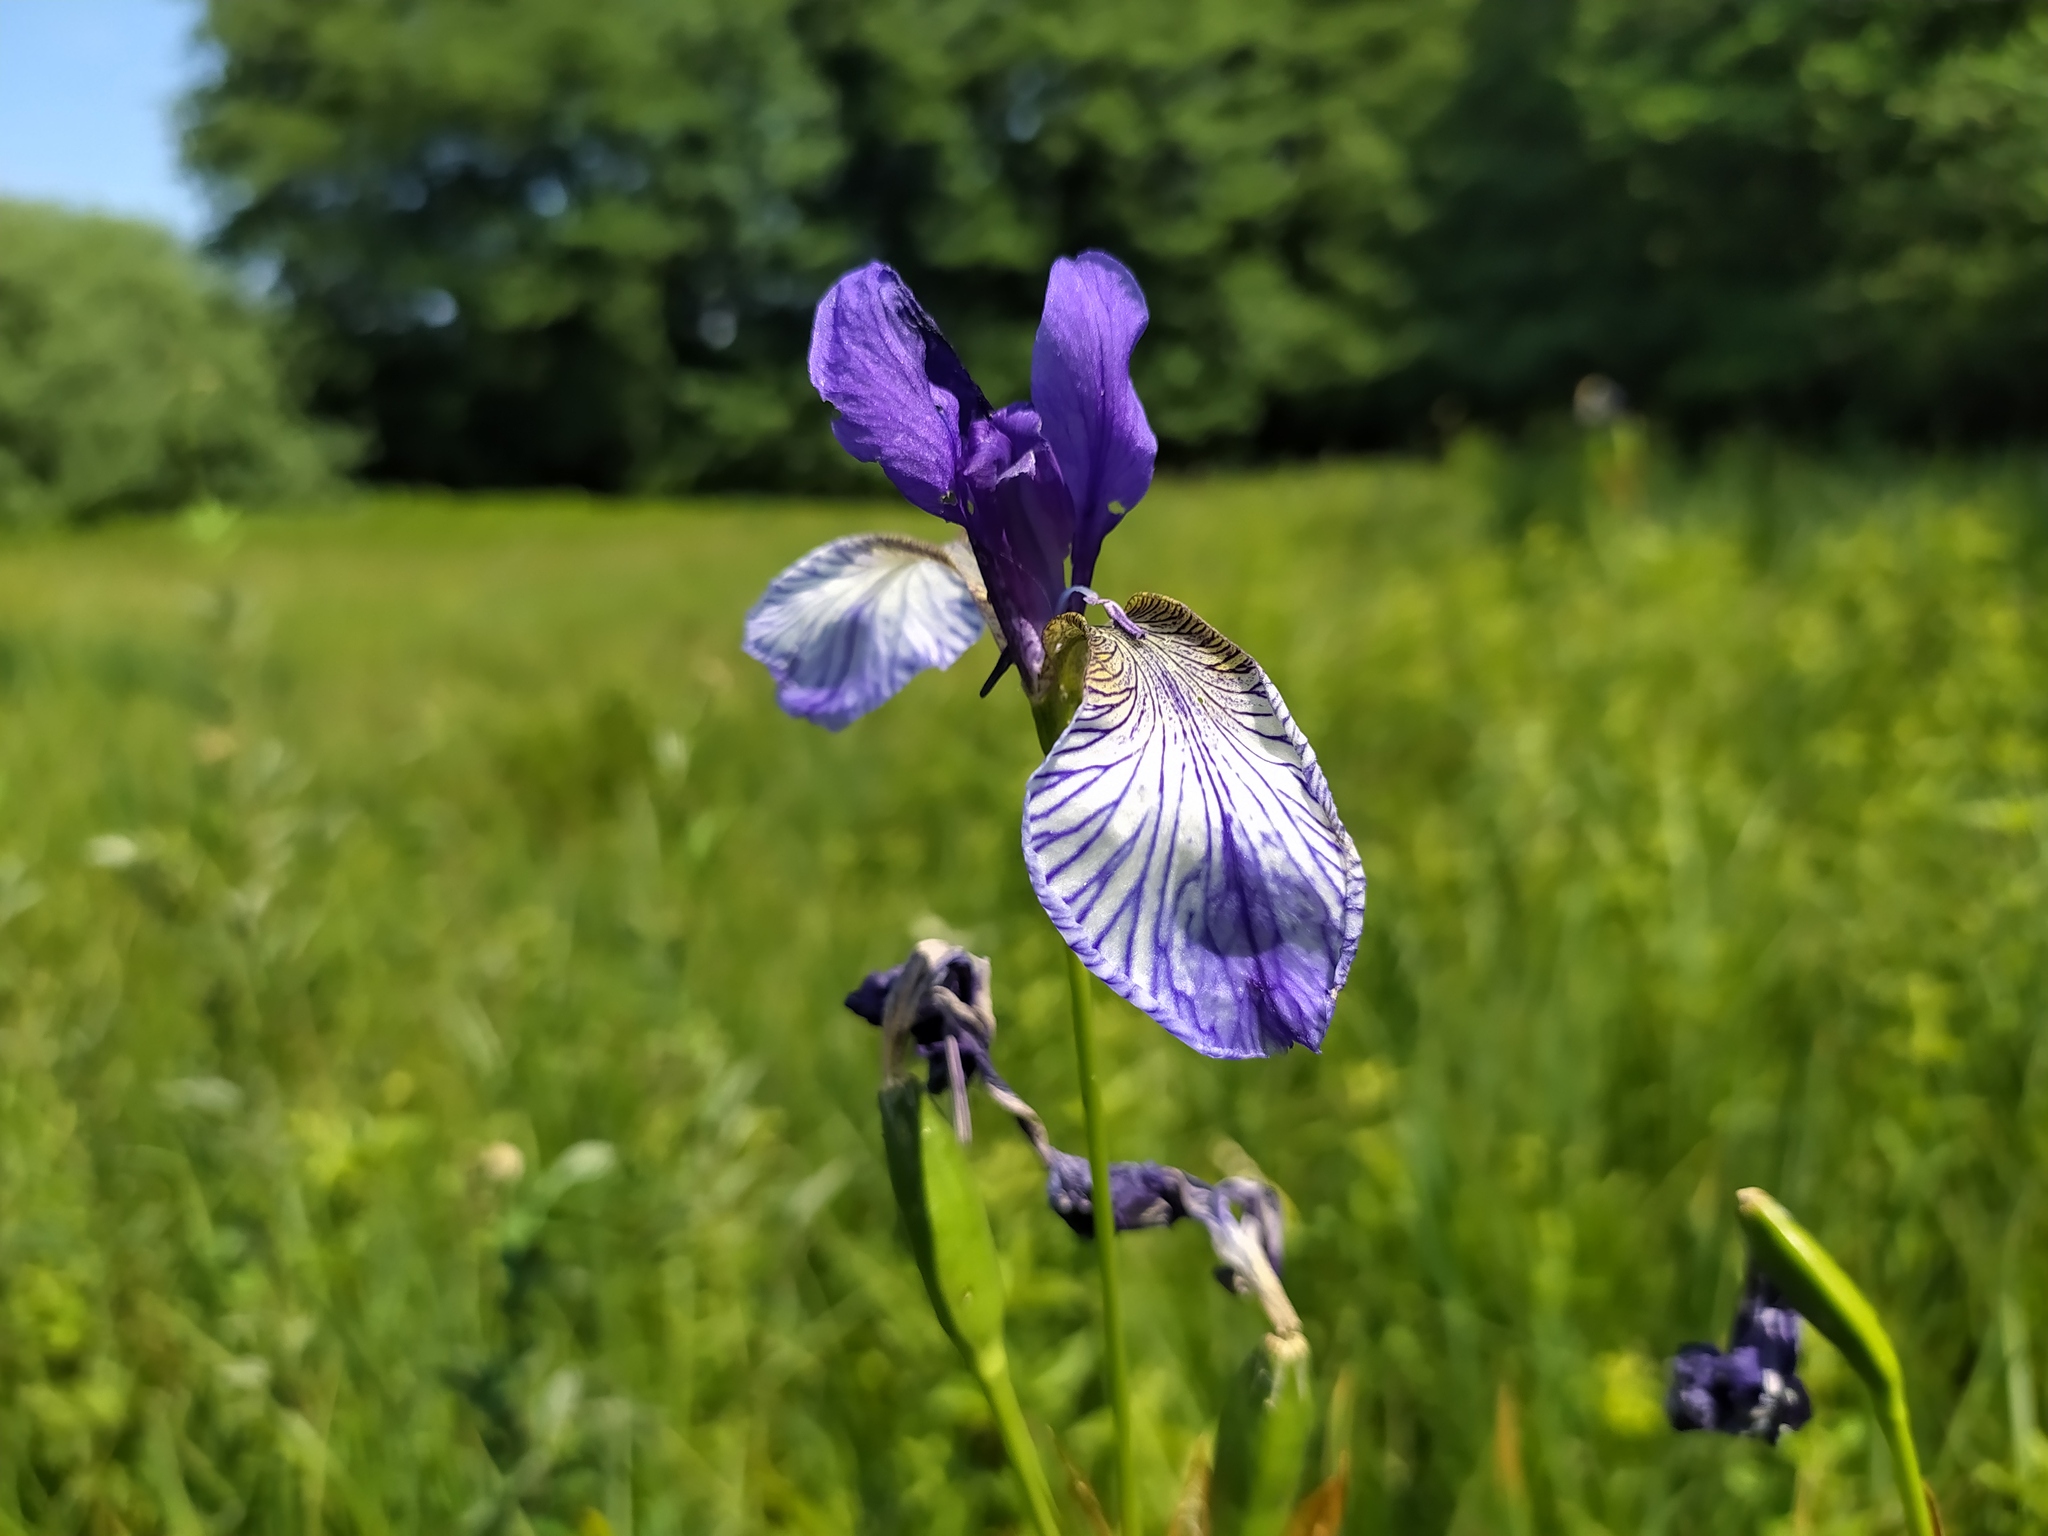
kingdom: Plantae
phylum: Tracheophyta
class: Liliopsida
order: Asparagales
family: Iridaceae
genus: Iris
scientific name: Iris sibirica
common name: Siberian iris
